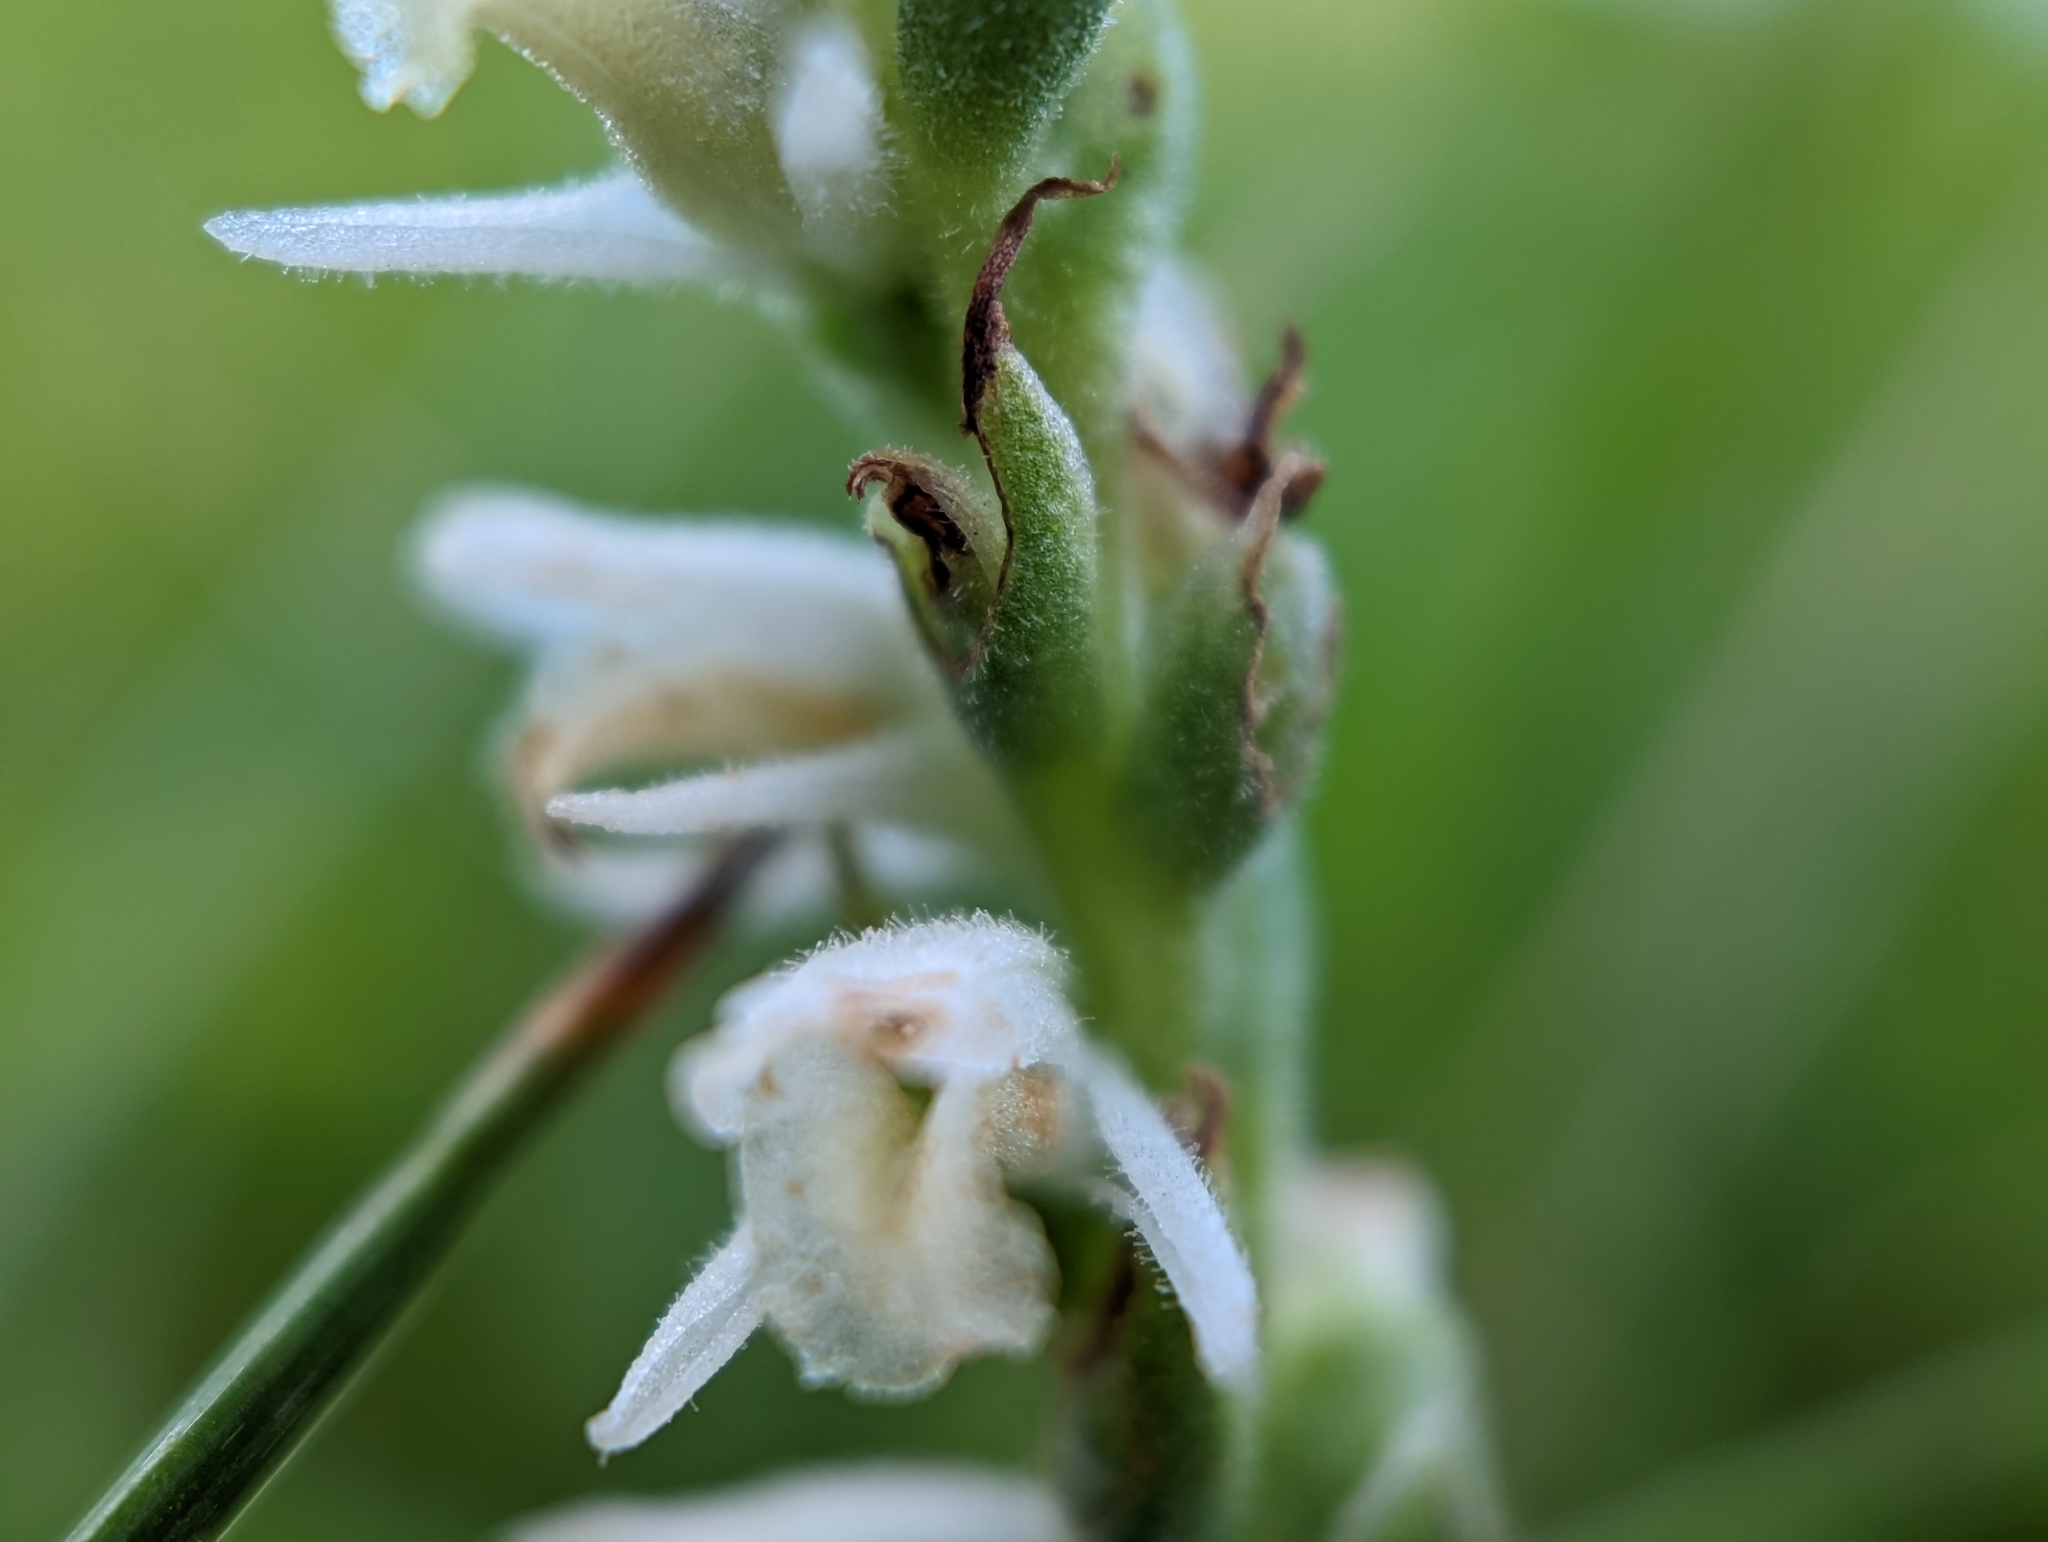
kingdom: Plantae
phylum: Tracheophyta
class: Liliopsida
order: Asparagales
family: Orchidaceae
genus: Spiranthes
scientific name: Spiranthes vernalis
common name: Spring ladies'-tresses
